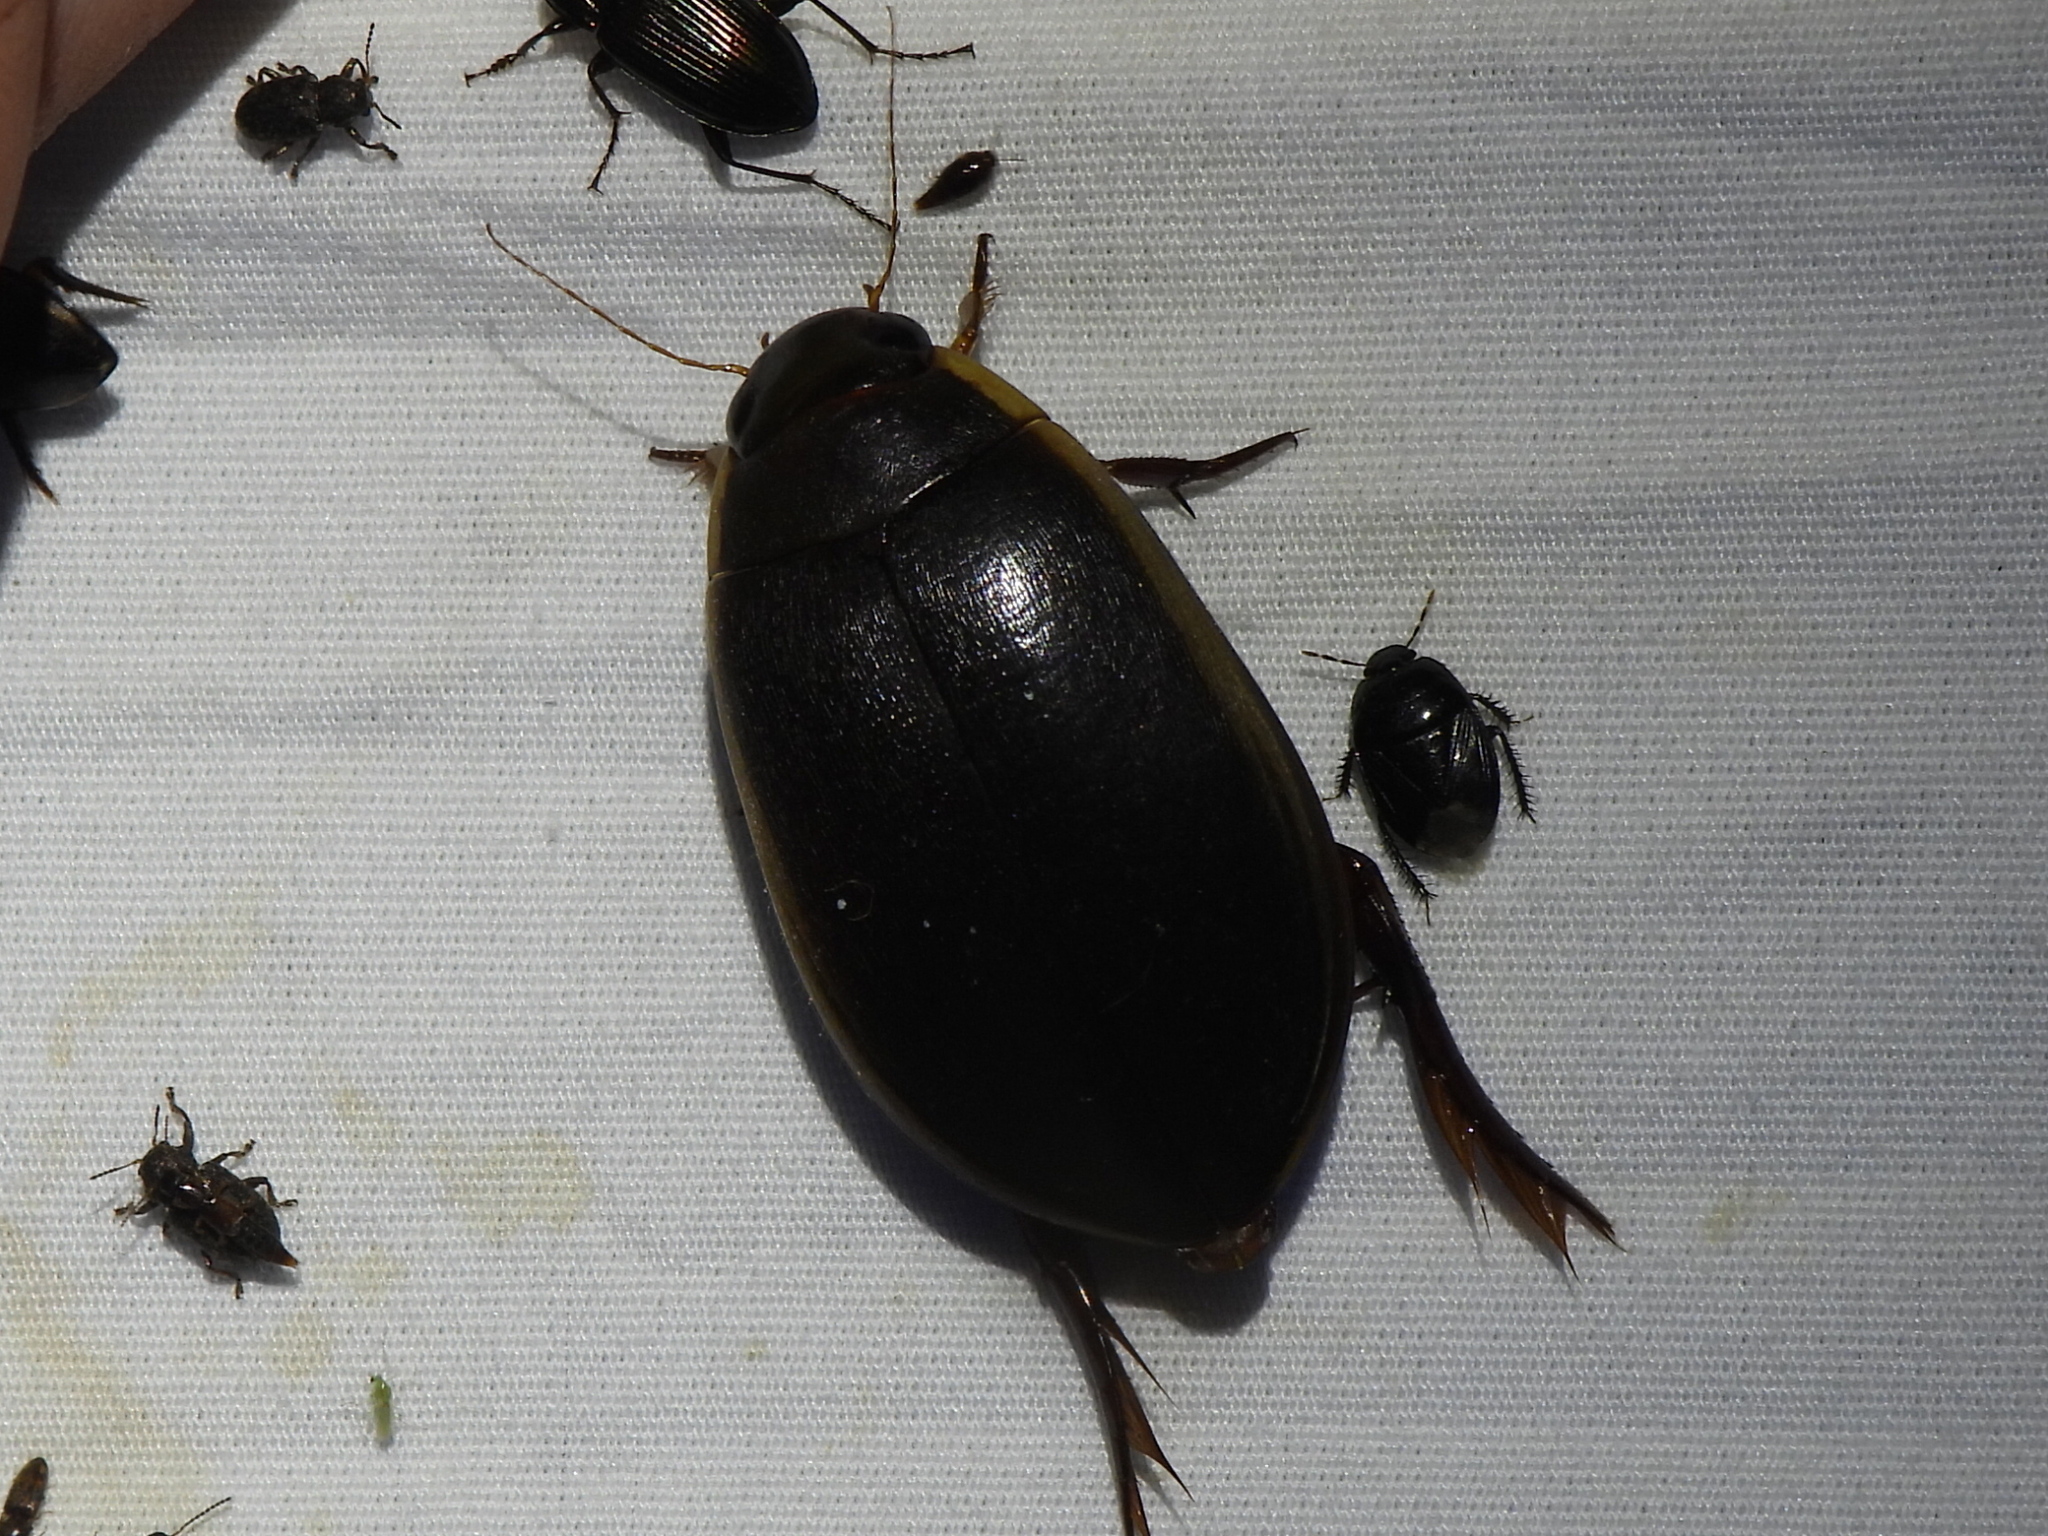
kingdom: Animalia
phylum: Arthropoda
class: Insecta
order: Coleoptera
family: Dytiscidae
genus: Cybister
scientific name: Cybister fimbriolatus
